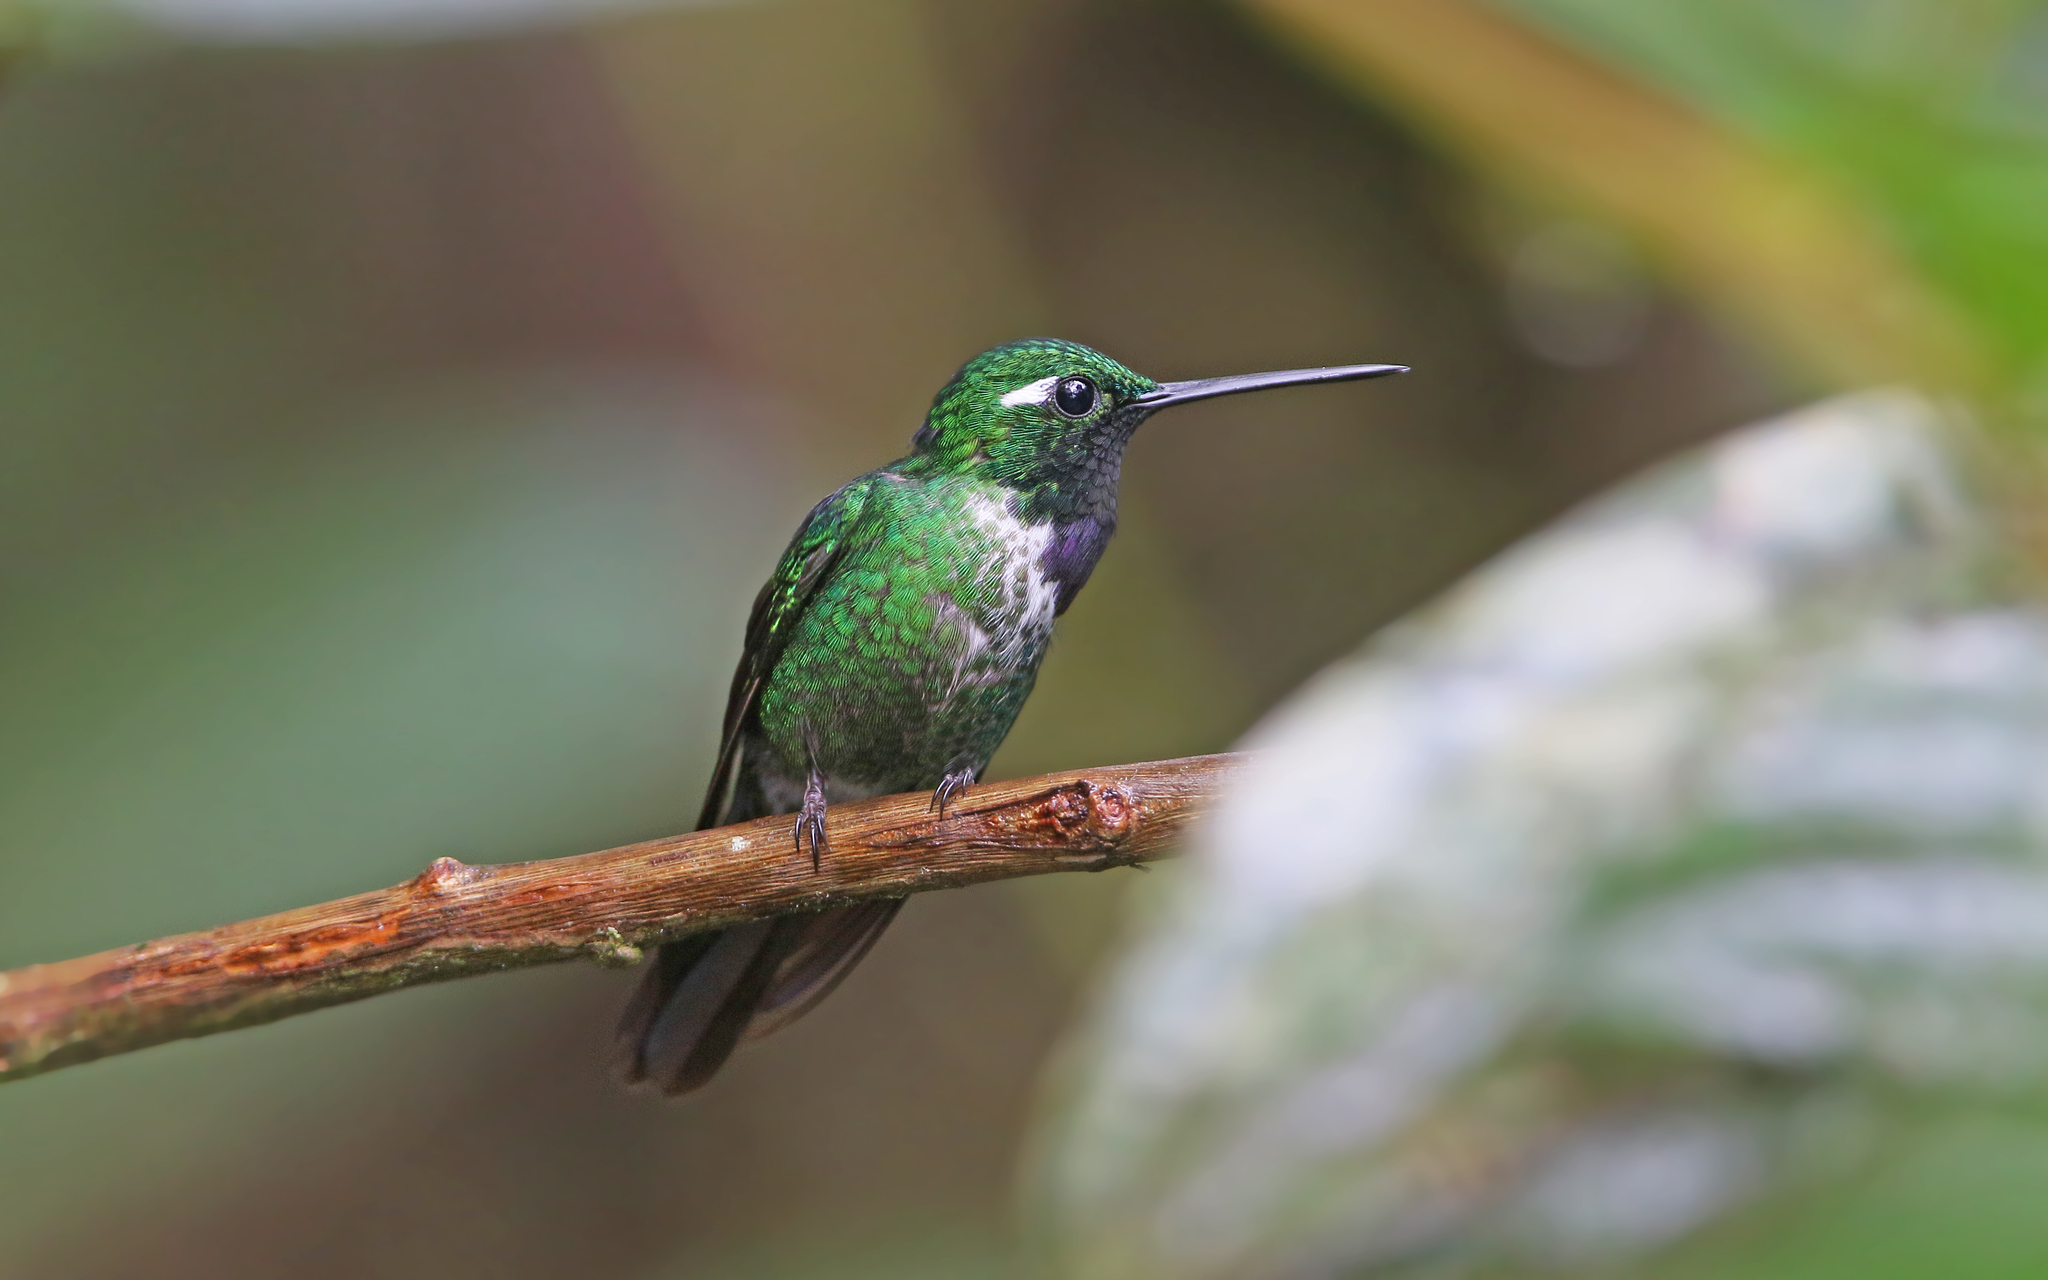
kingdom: Animalia
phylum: Chordata
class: Aves
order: Apodiformes
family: Trochilidae
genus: Urosticte
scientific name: Urosticte benjamini
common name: Purple-bibbed whitetip
